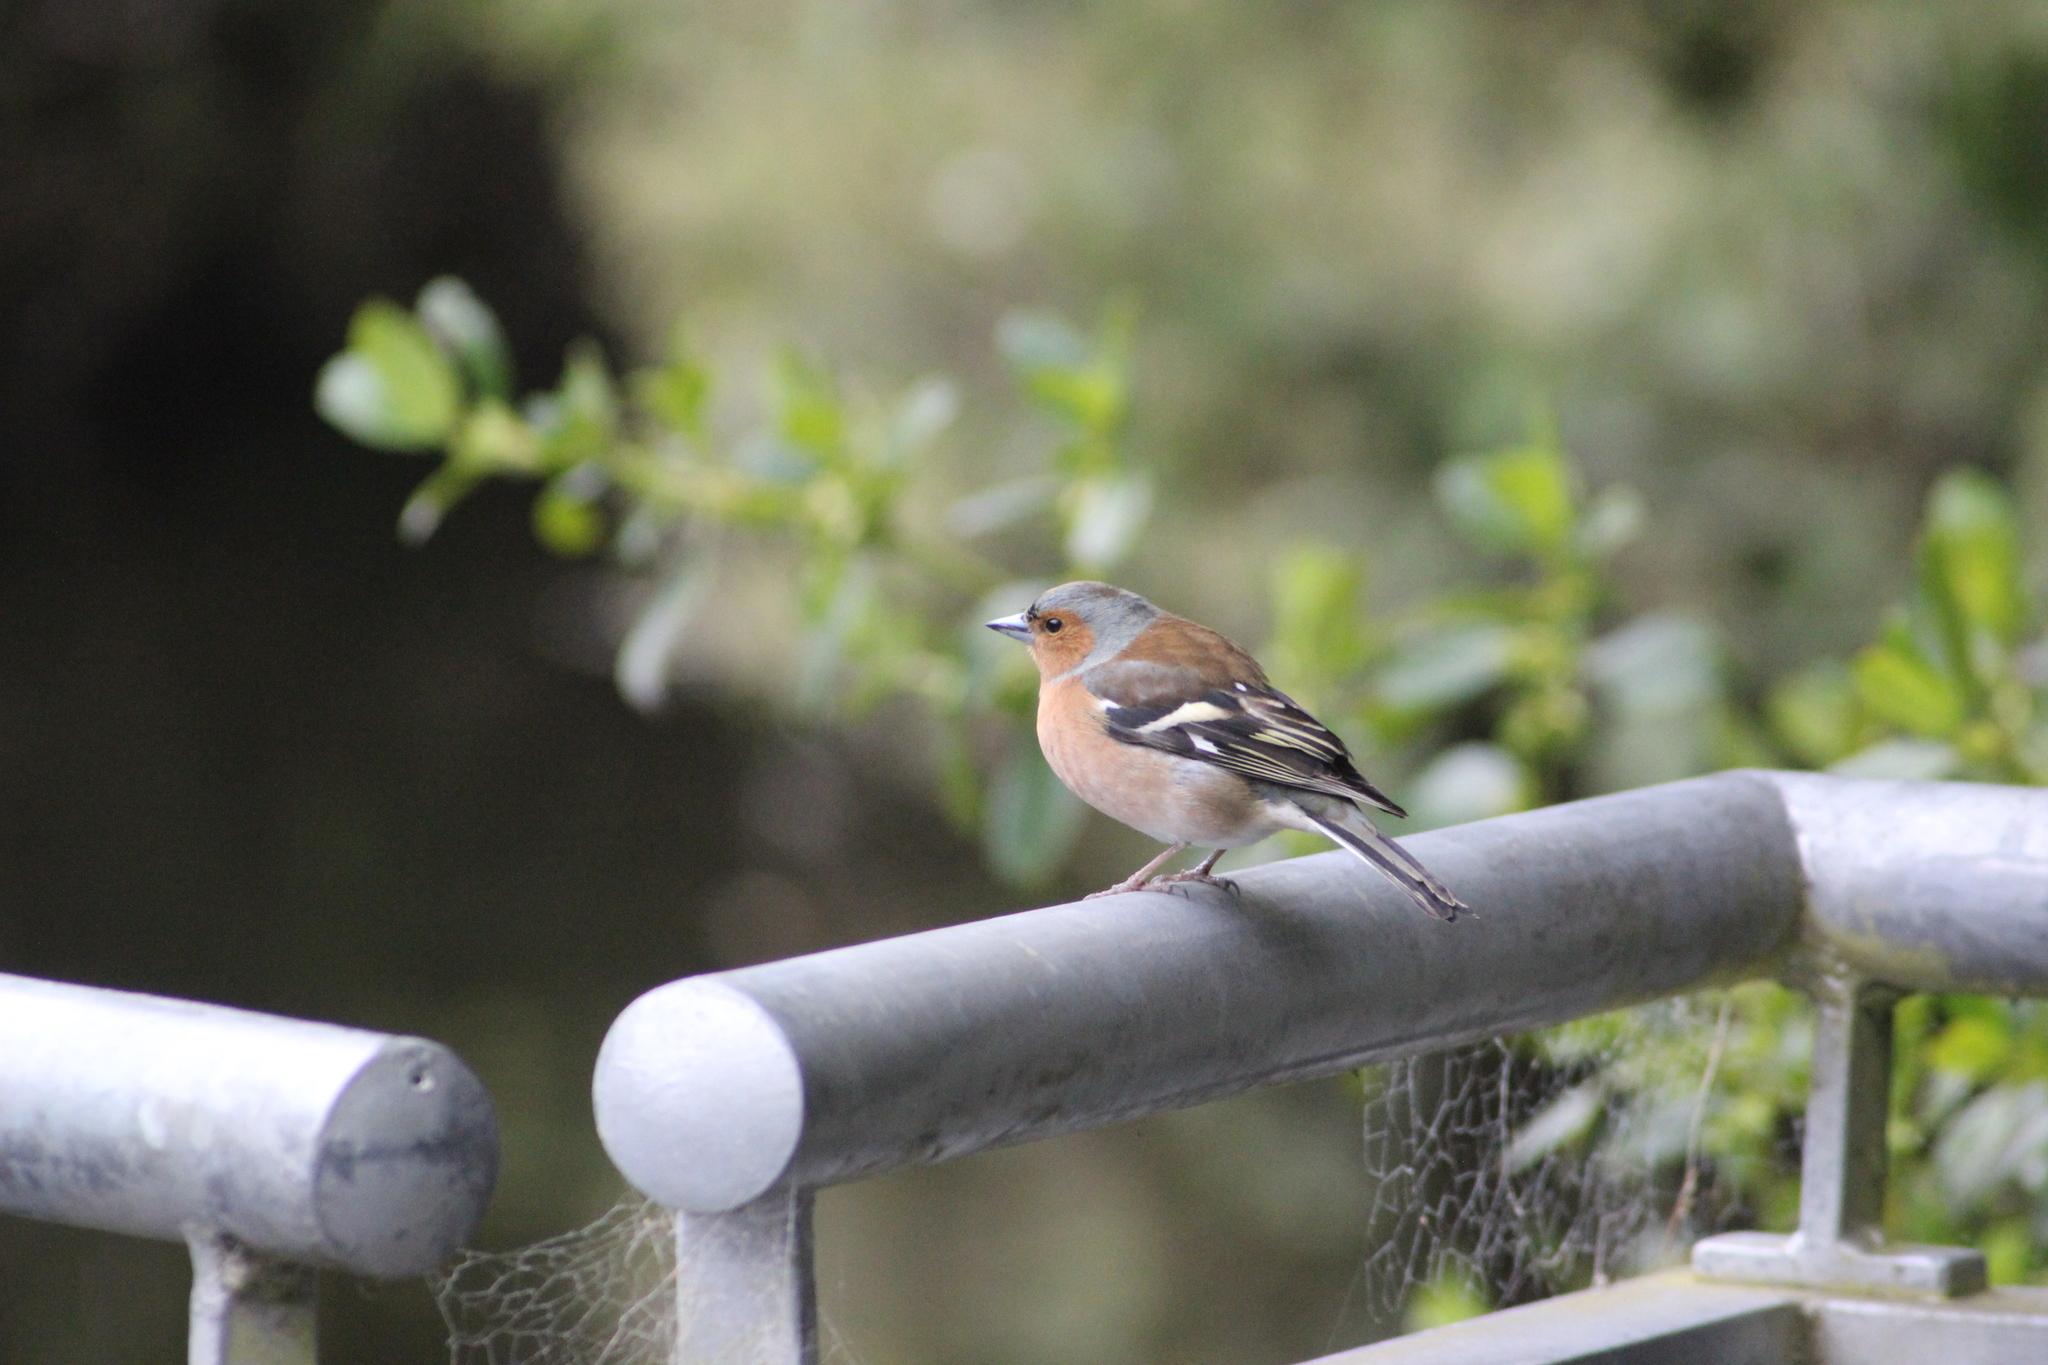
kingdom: Animalia
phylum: Chordata
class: Aves
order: Passeriformes
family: Fringillidae
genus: Fringilla
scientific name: Fringilla coelebs
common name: Common chaffinch
